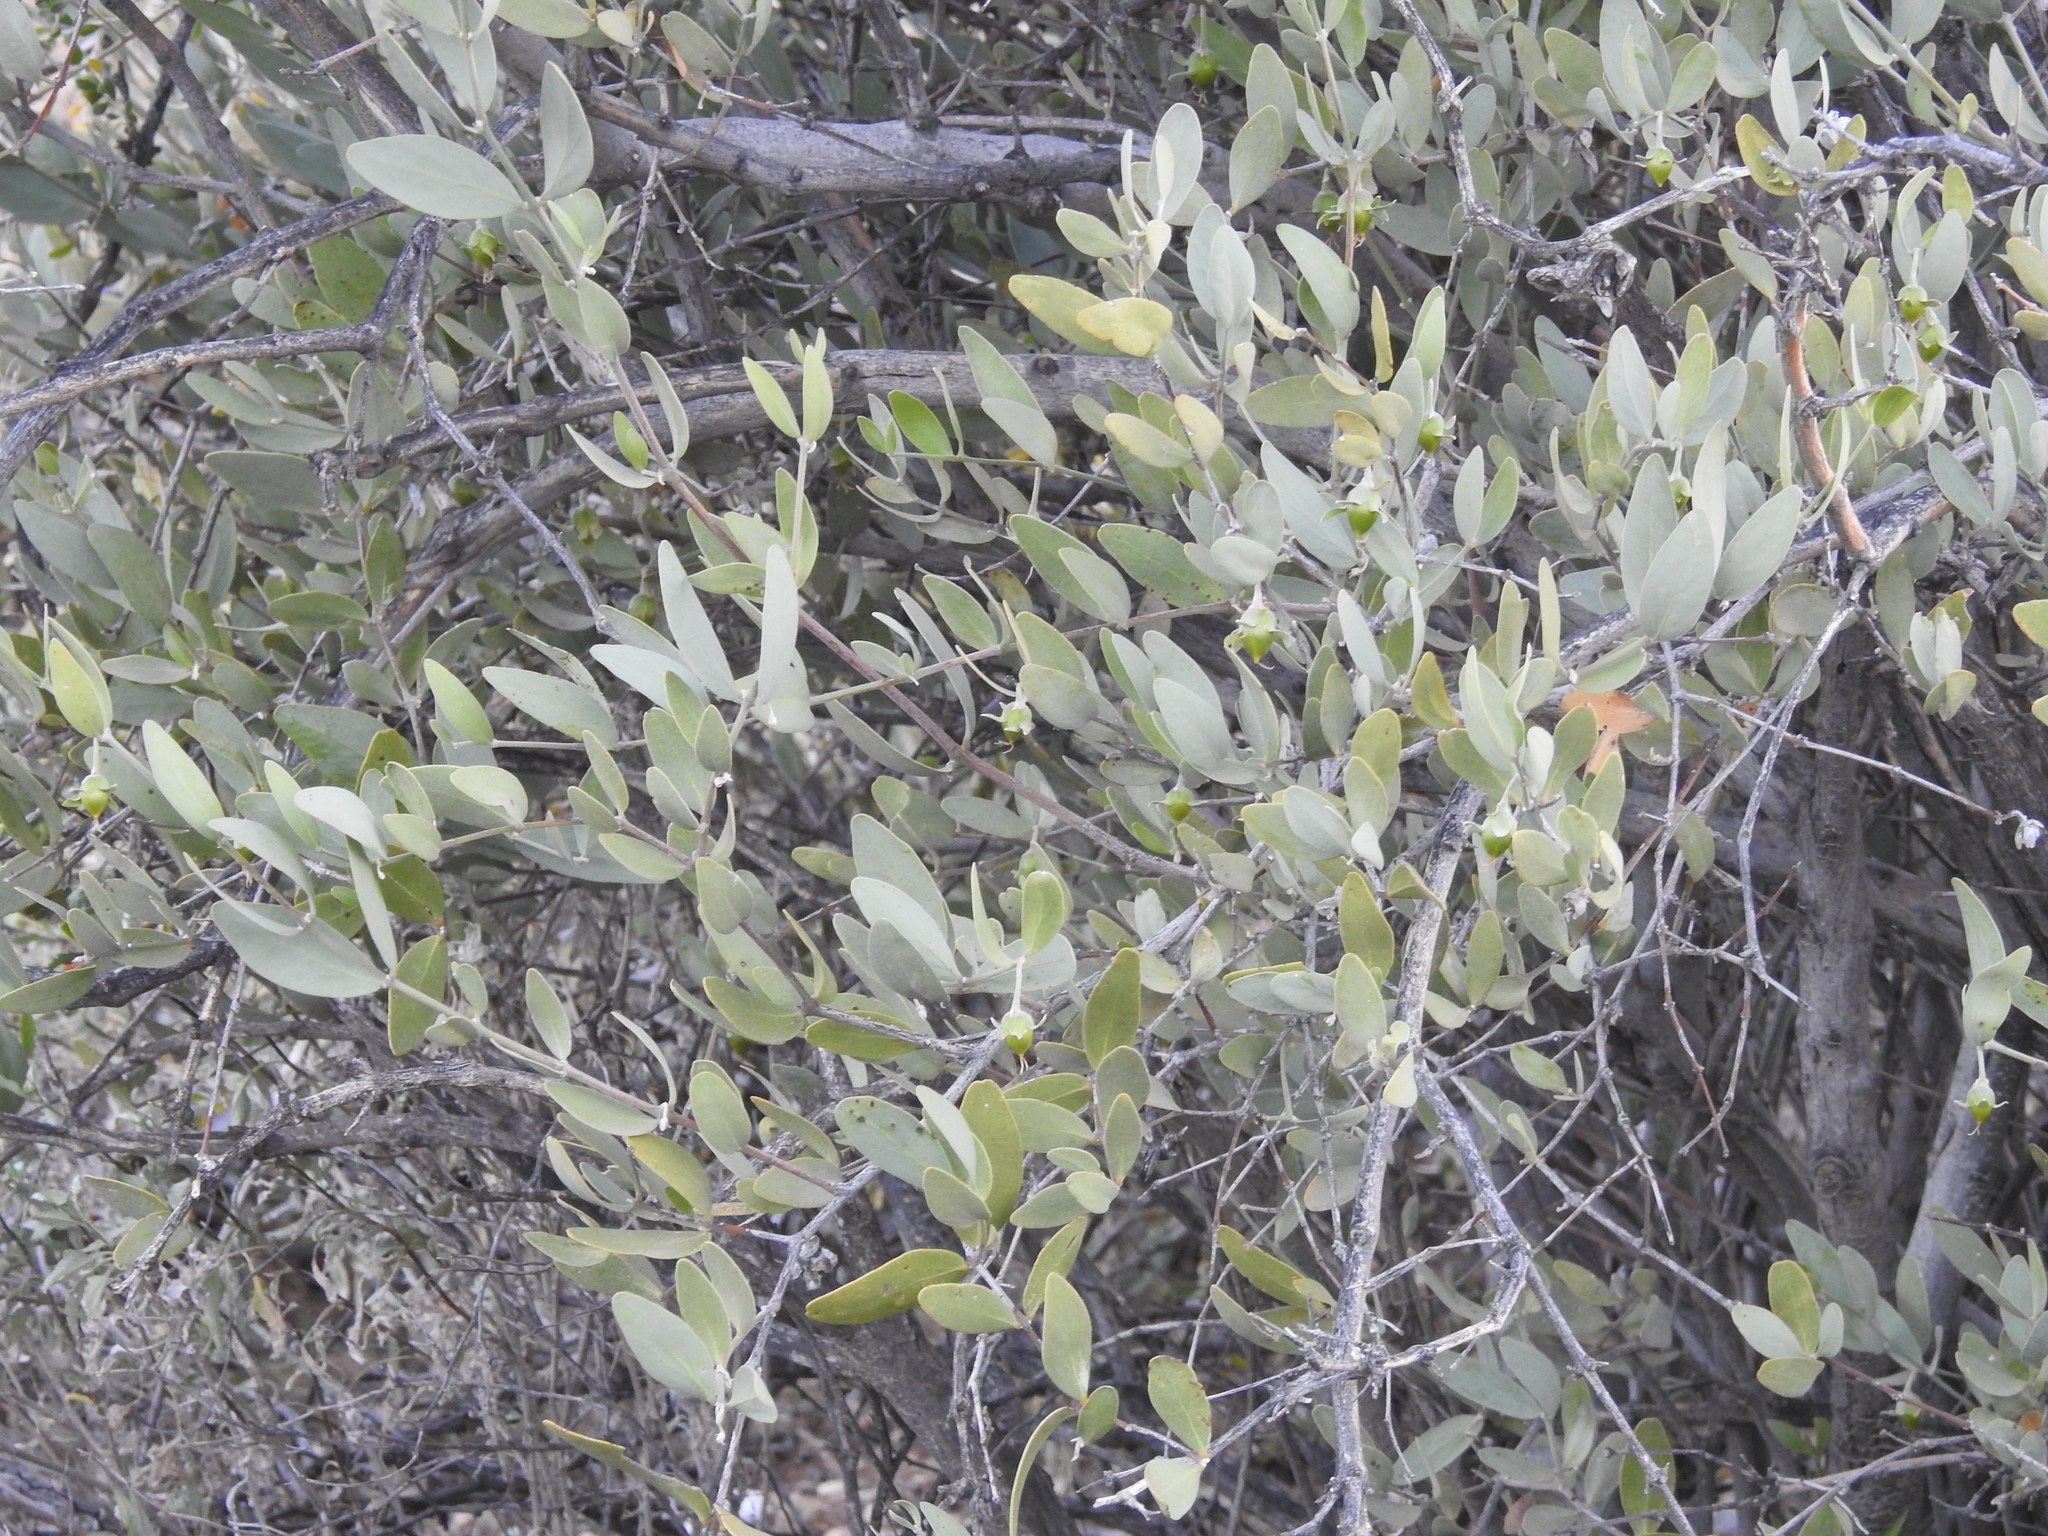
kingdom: Plantae
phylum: Tracheophyta
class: Magnoliopsida
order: Caryophyllales
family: Simmondsiaceae
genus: Simmondsia
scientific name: Simmondsia chinensis
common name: Jojoba
